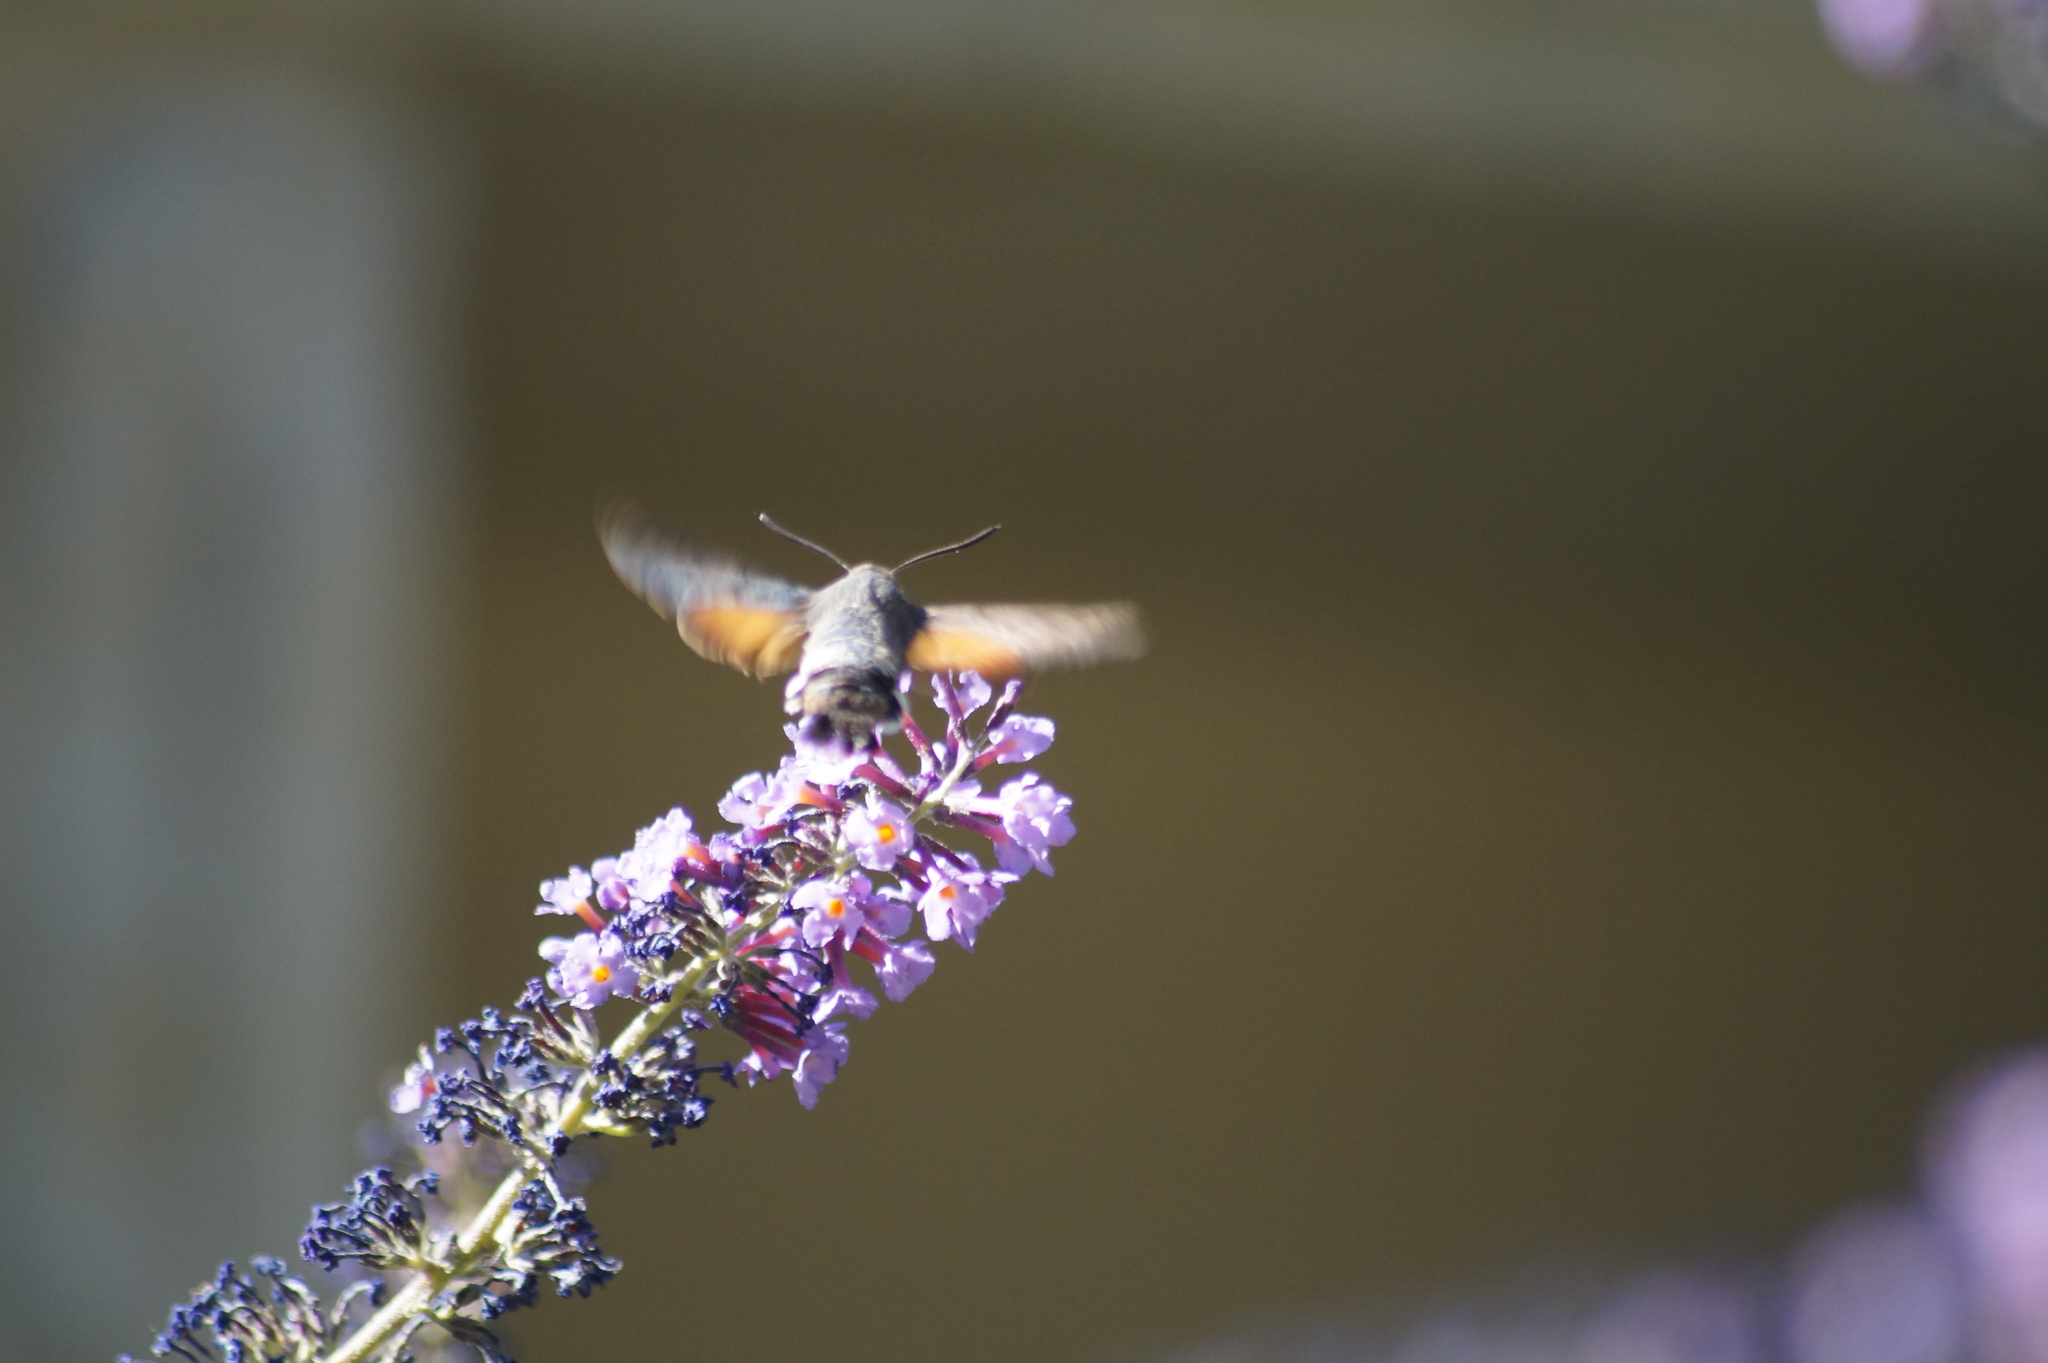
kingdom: Animalia
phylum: Arthropoda
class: Insecta
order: Lepidoptera
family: Sphingidae
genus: Macroglossum
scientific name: Macroglossum stellatarum
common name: Humming-bird hawk-moth
